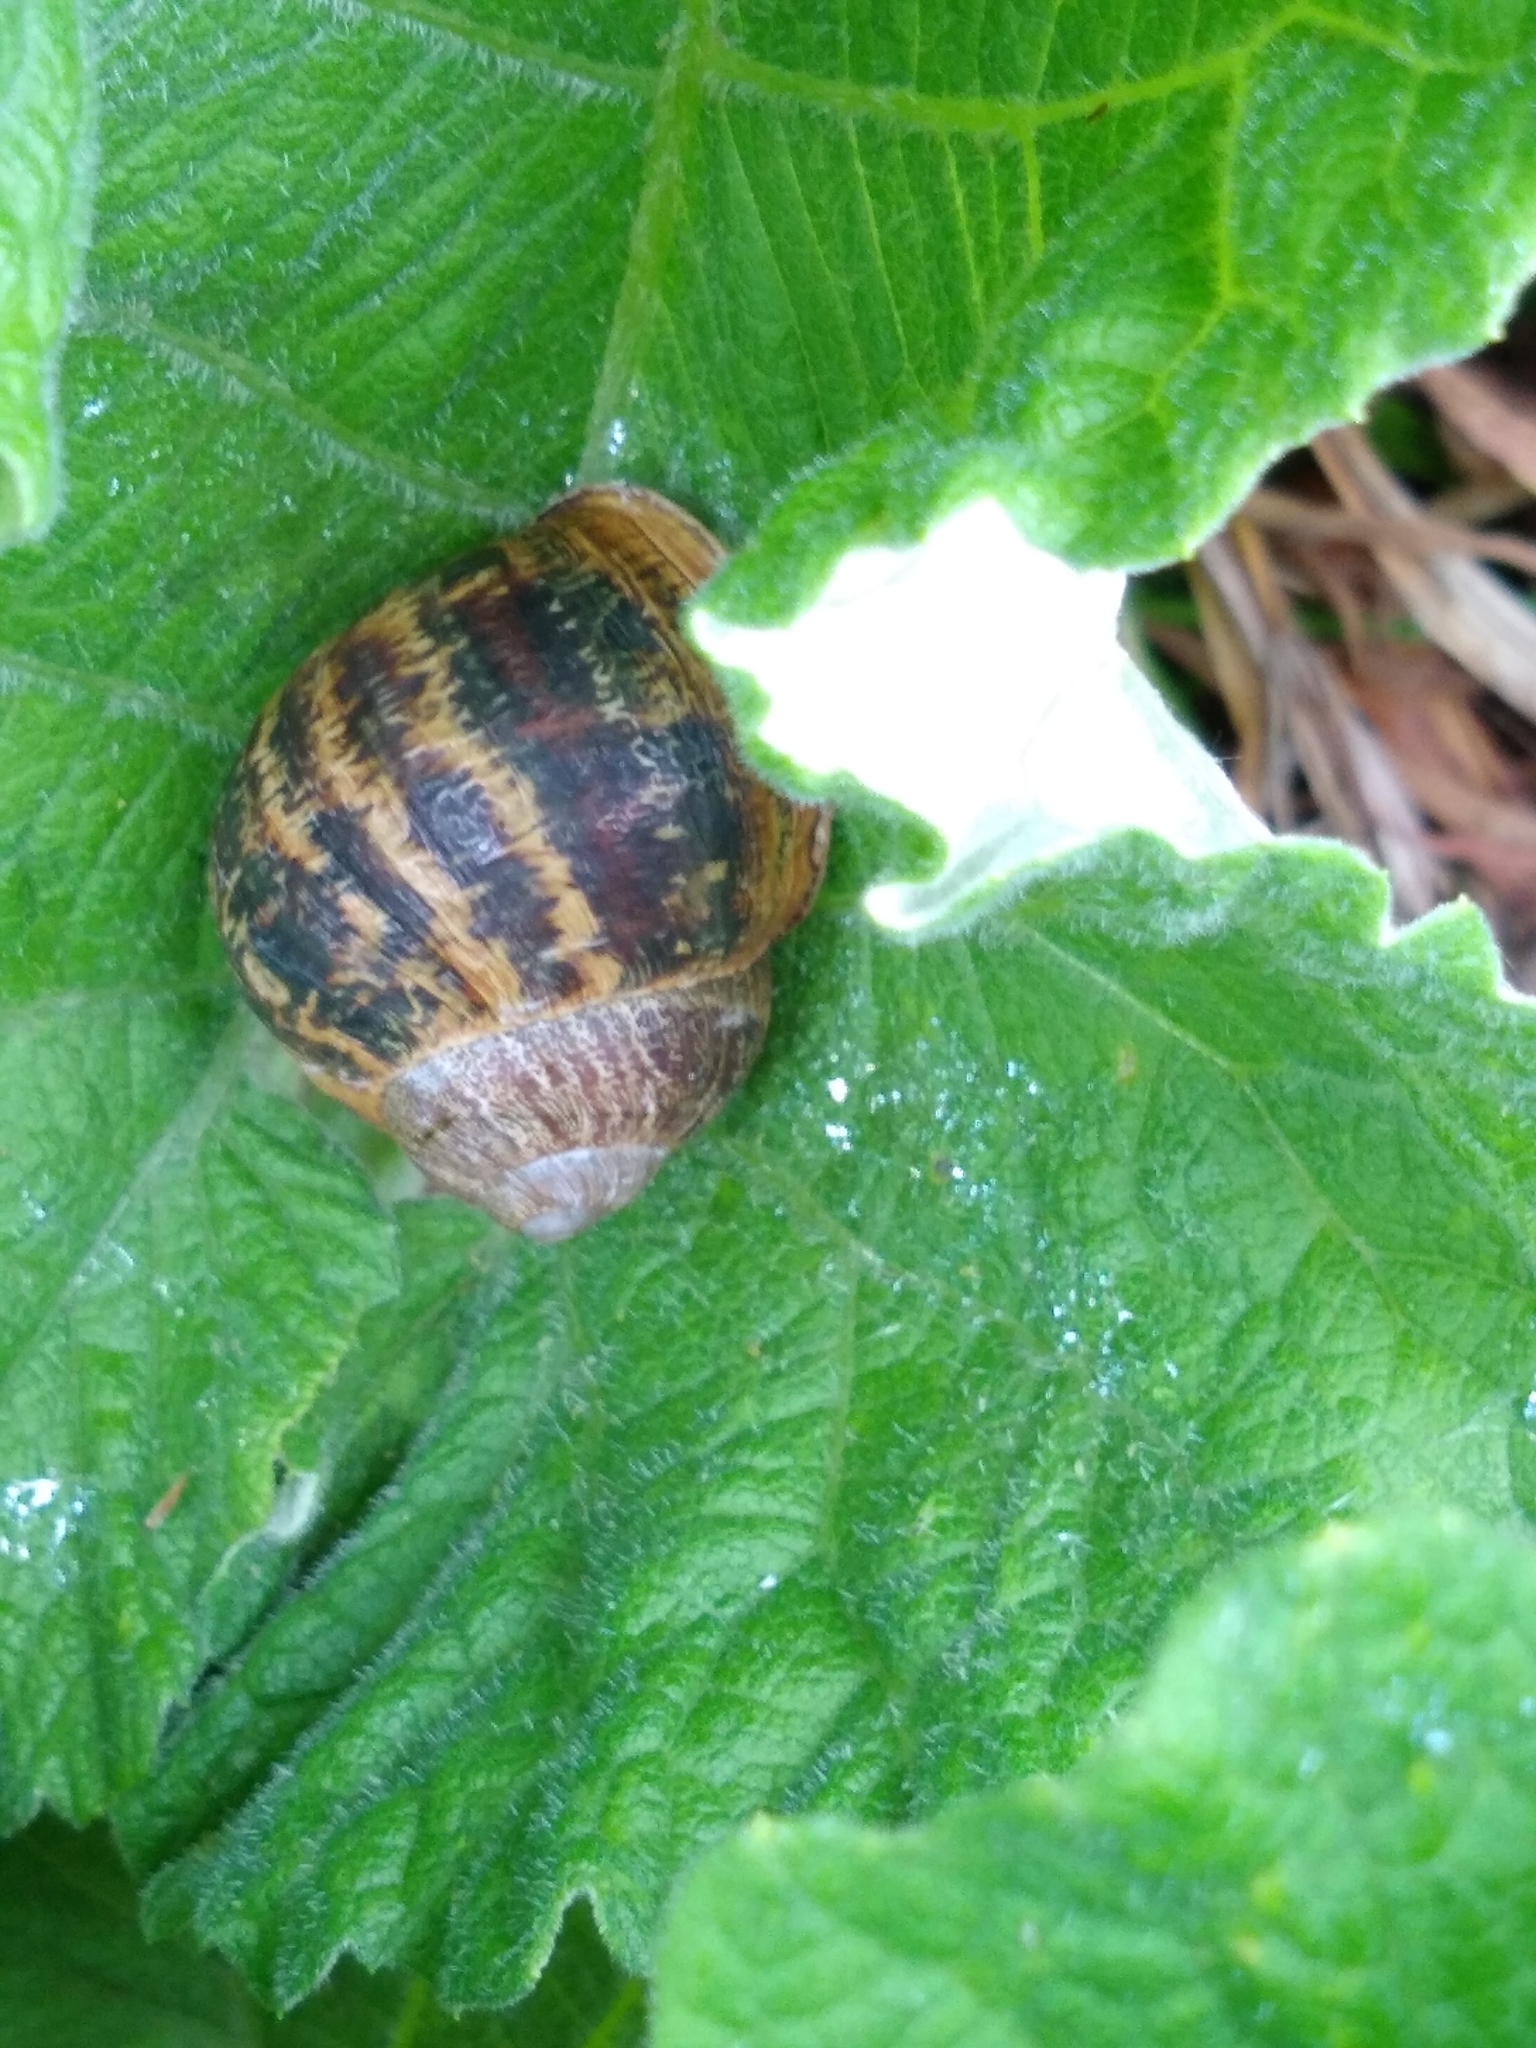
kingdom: Animalia
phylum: Mollusca
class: Gastropoda
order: Stylommatophora
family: Helicidae
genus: Cornu
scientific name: Cornu aspersum
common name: Brown garden snail
